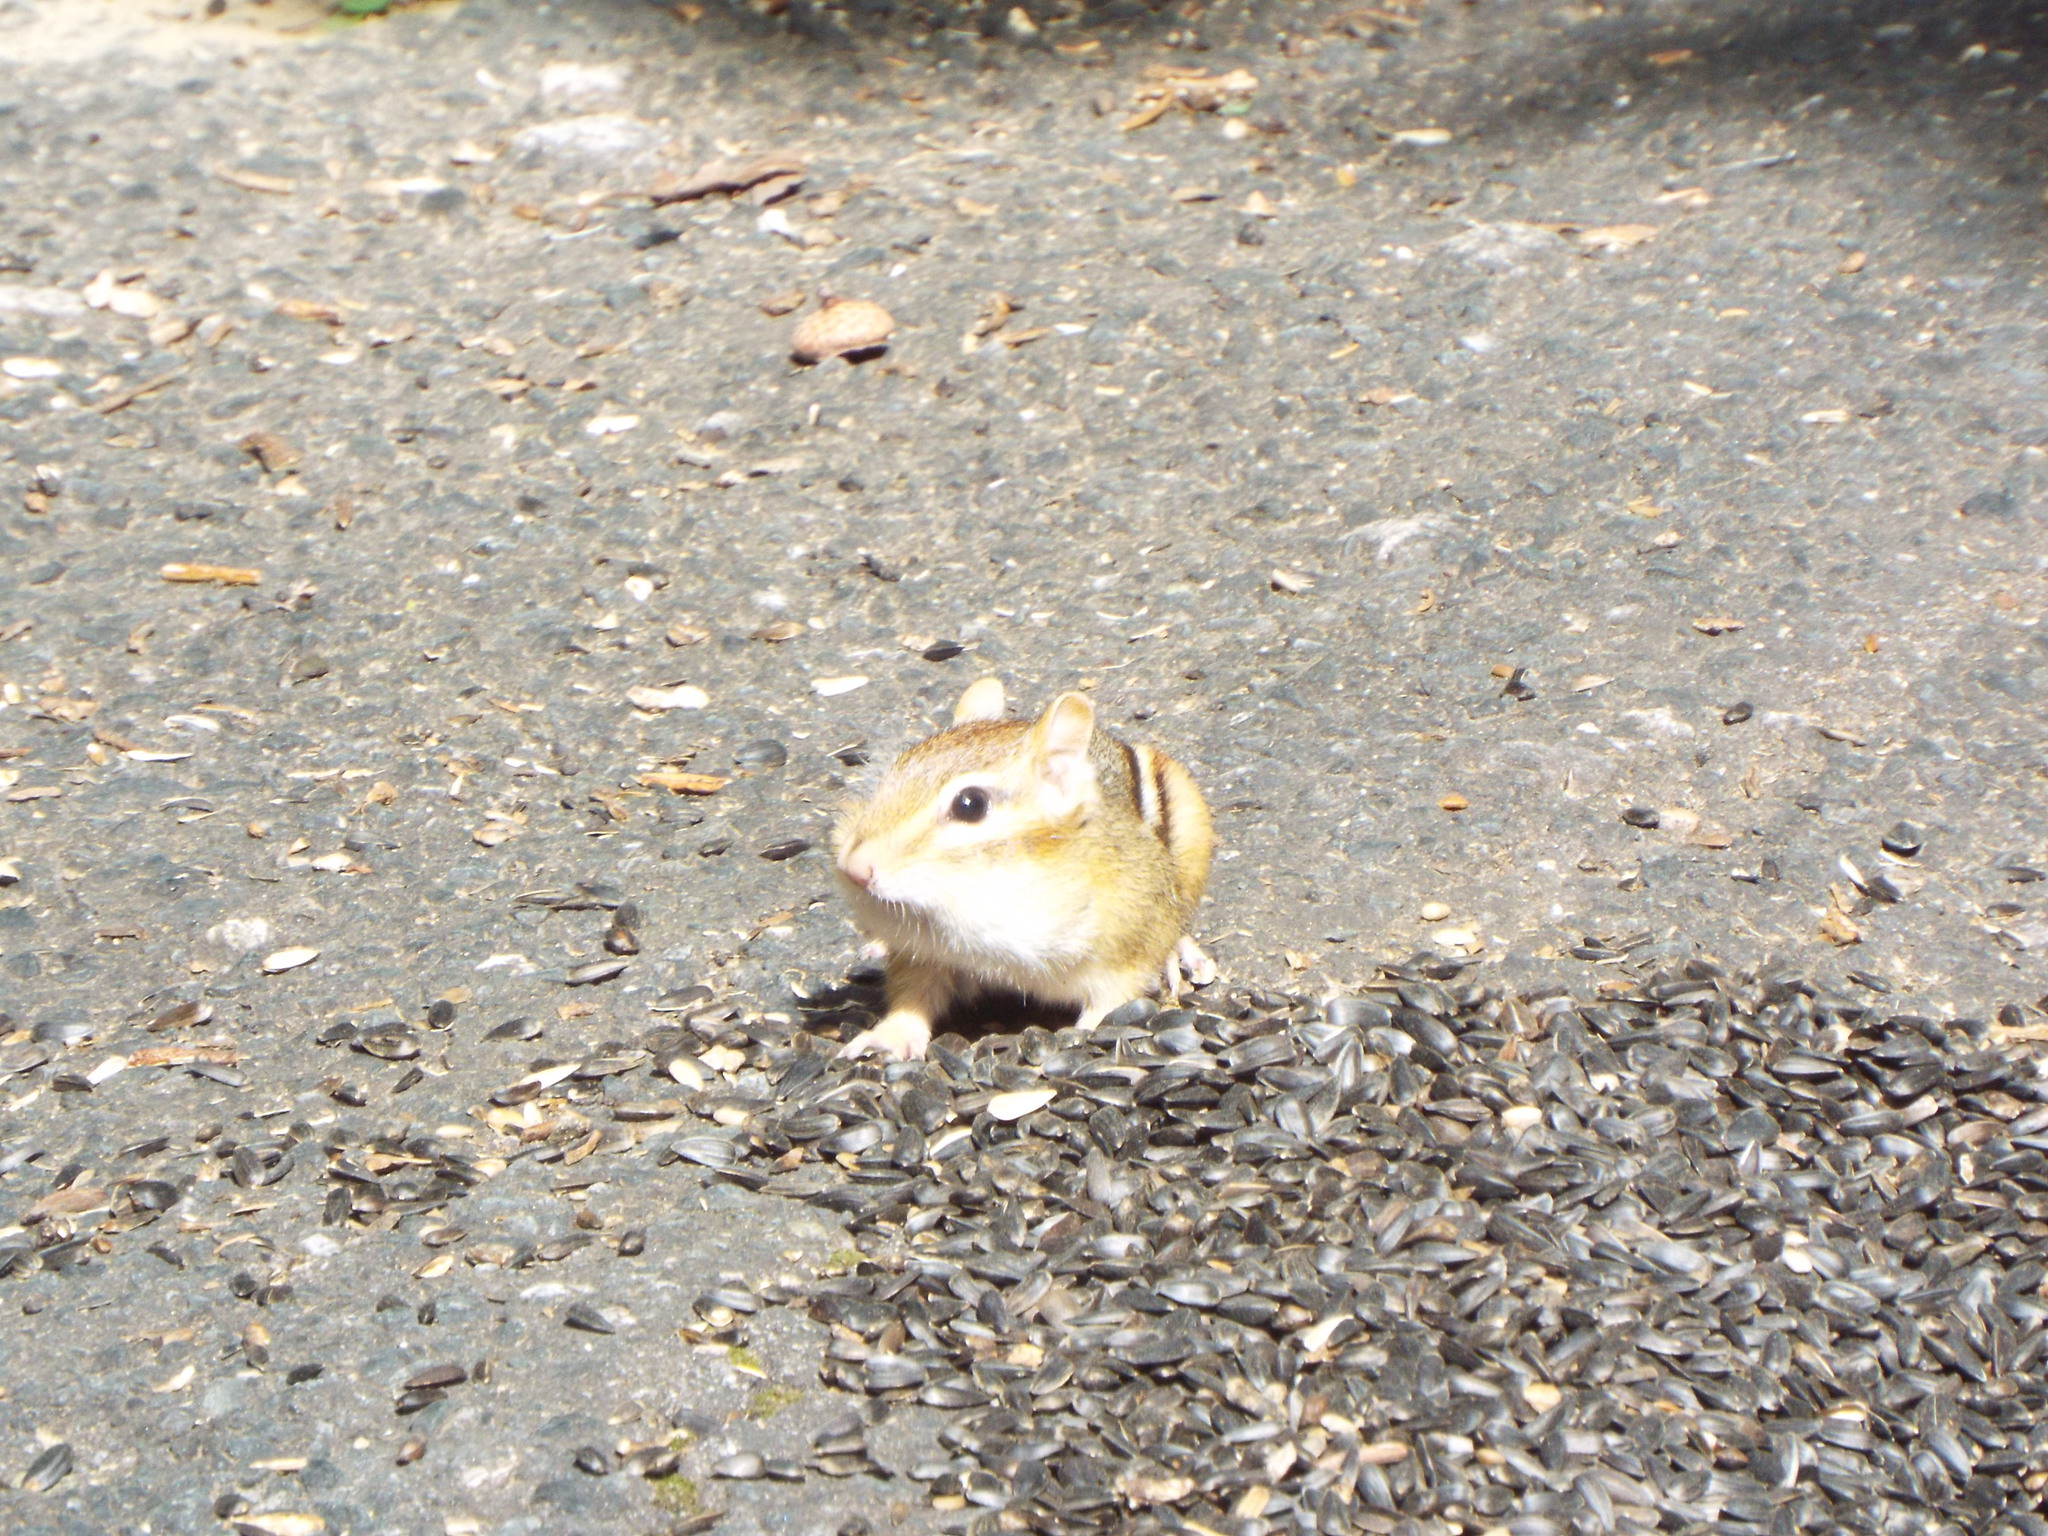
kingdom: Animalia
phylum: Chordata
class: Mammalia
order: Rodentia
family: Sciuridae
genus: Tamias
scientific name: Tamias striatus
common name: Eastern chipmunk
